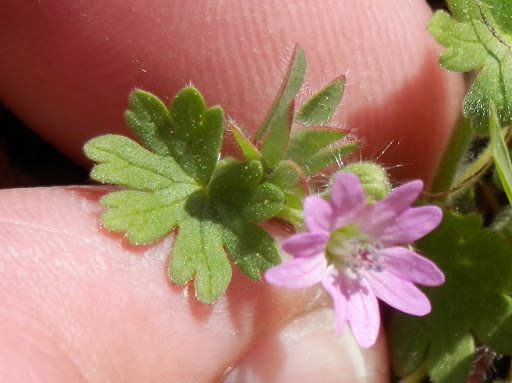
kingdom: Plantae
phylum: Tracheophyta
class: Magnoliopsida
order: Geraniales
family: Geraniaceae
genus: Geranium
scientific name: Geranium molle
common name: Dove's-foot crane's-bill
